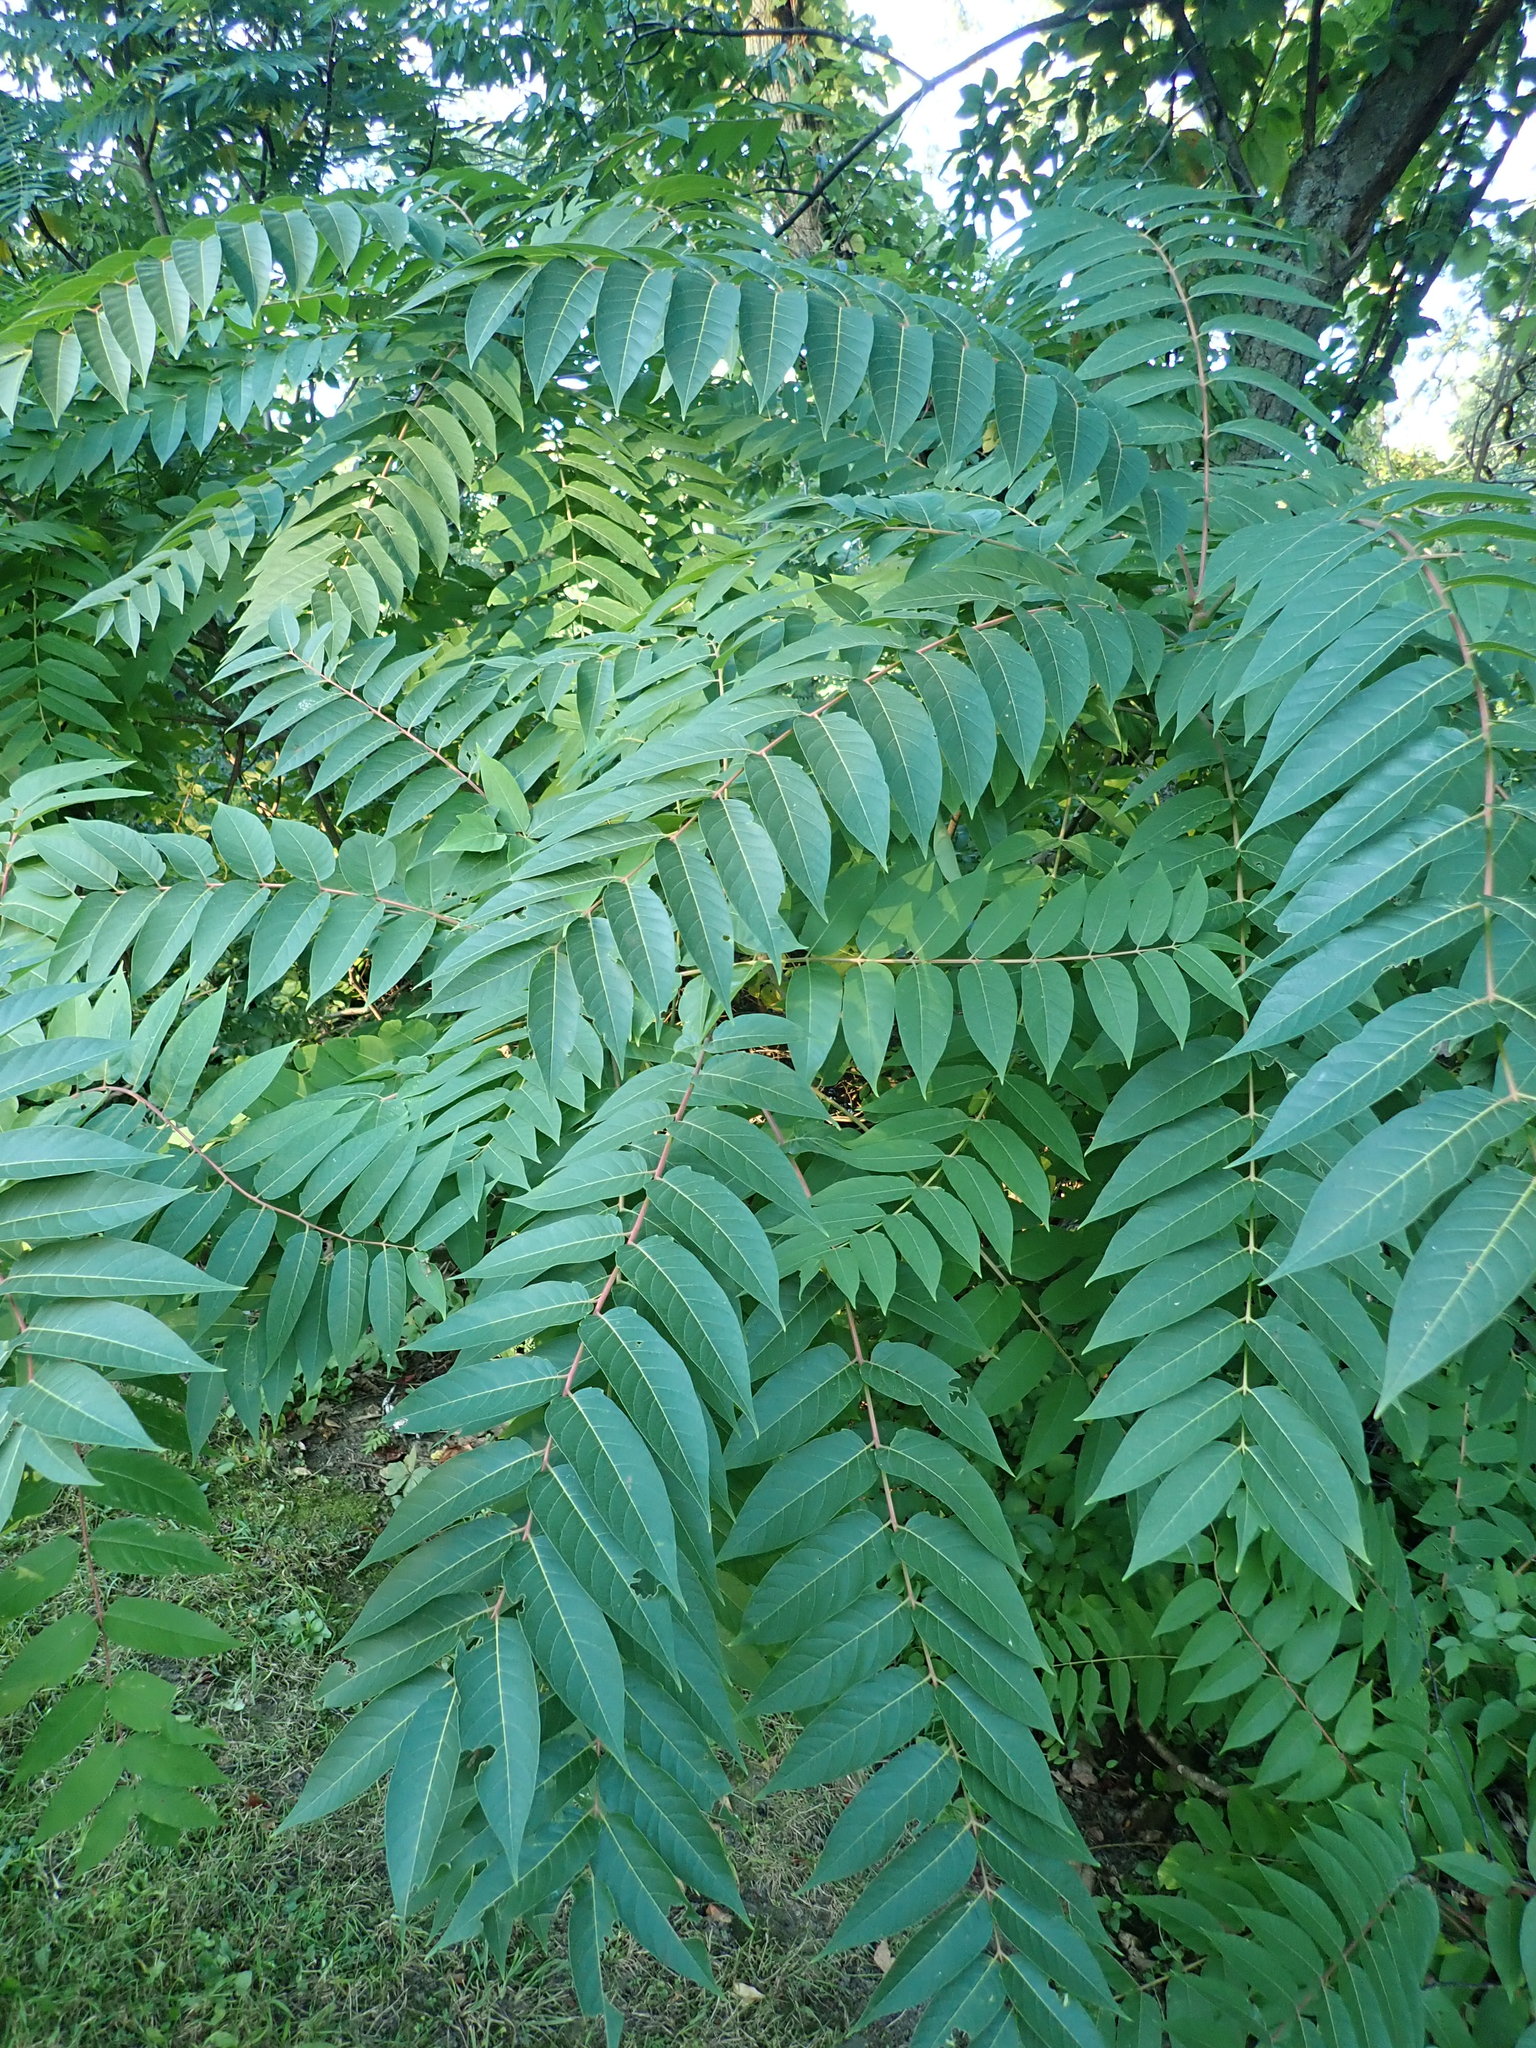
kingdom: Plantae
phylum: Tracheophyta
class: Magnoliopsida
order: Sapindales
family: Simaroubaceae
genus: Ailanthus
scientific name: Ailanthus altissima
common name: Tree-of-heaven
